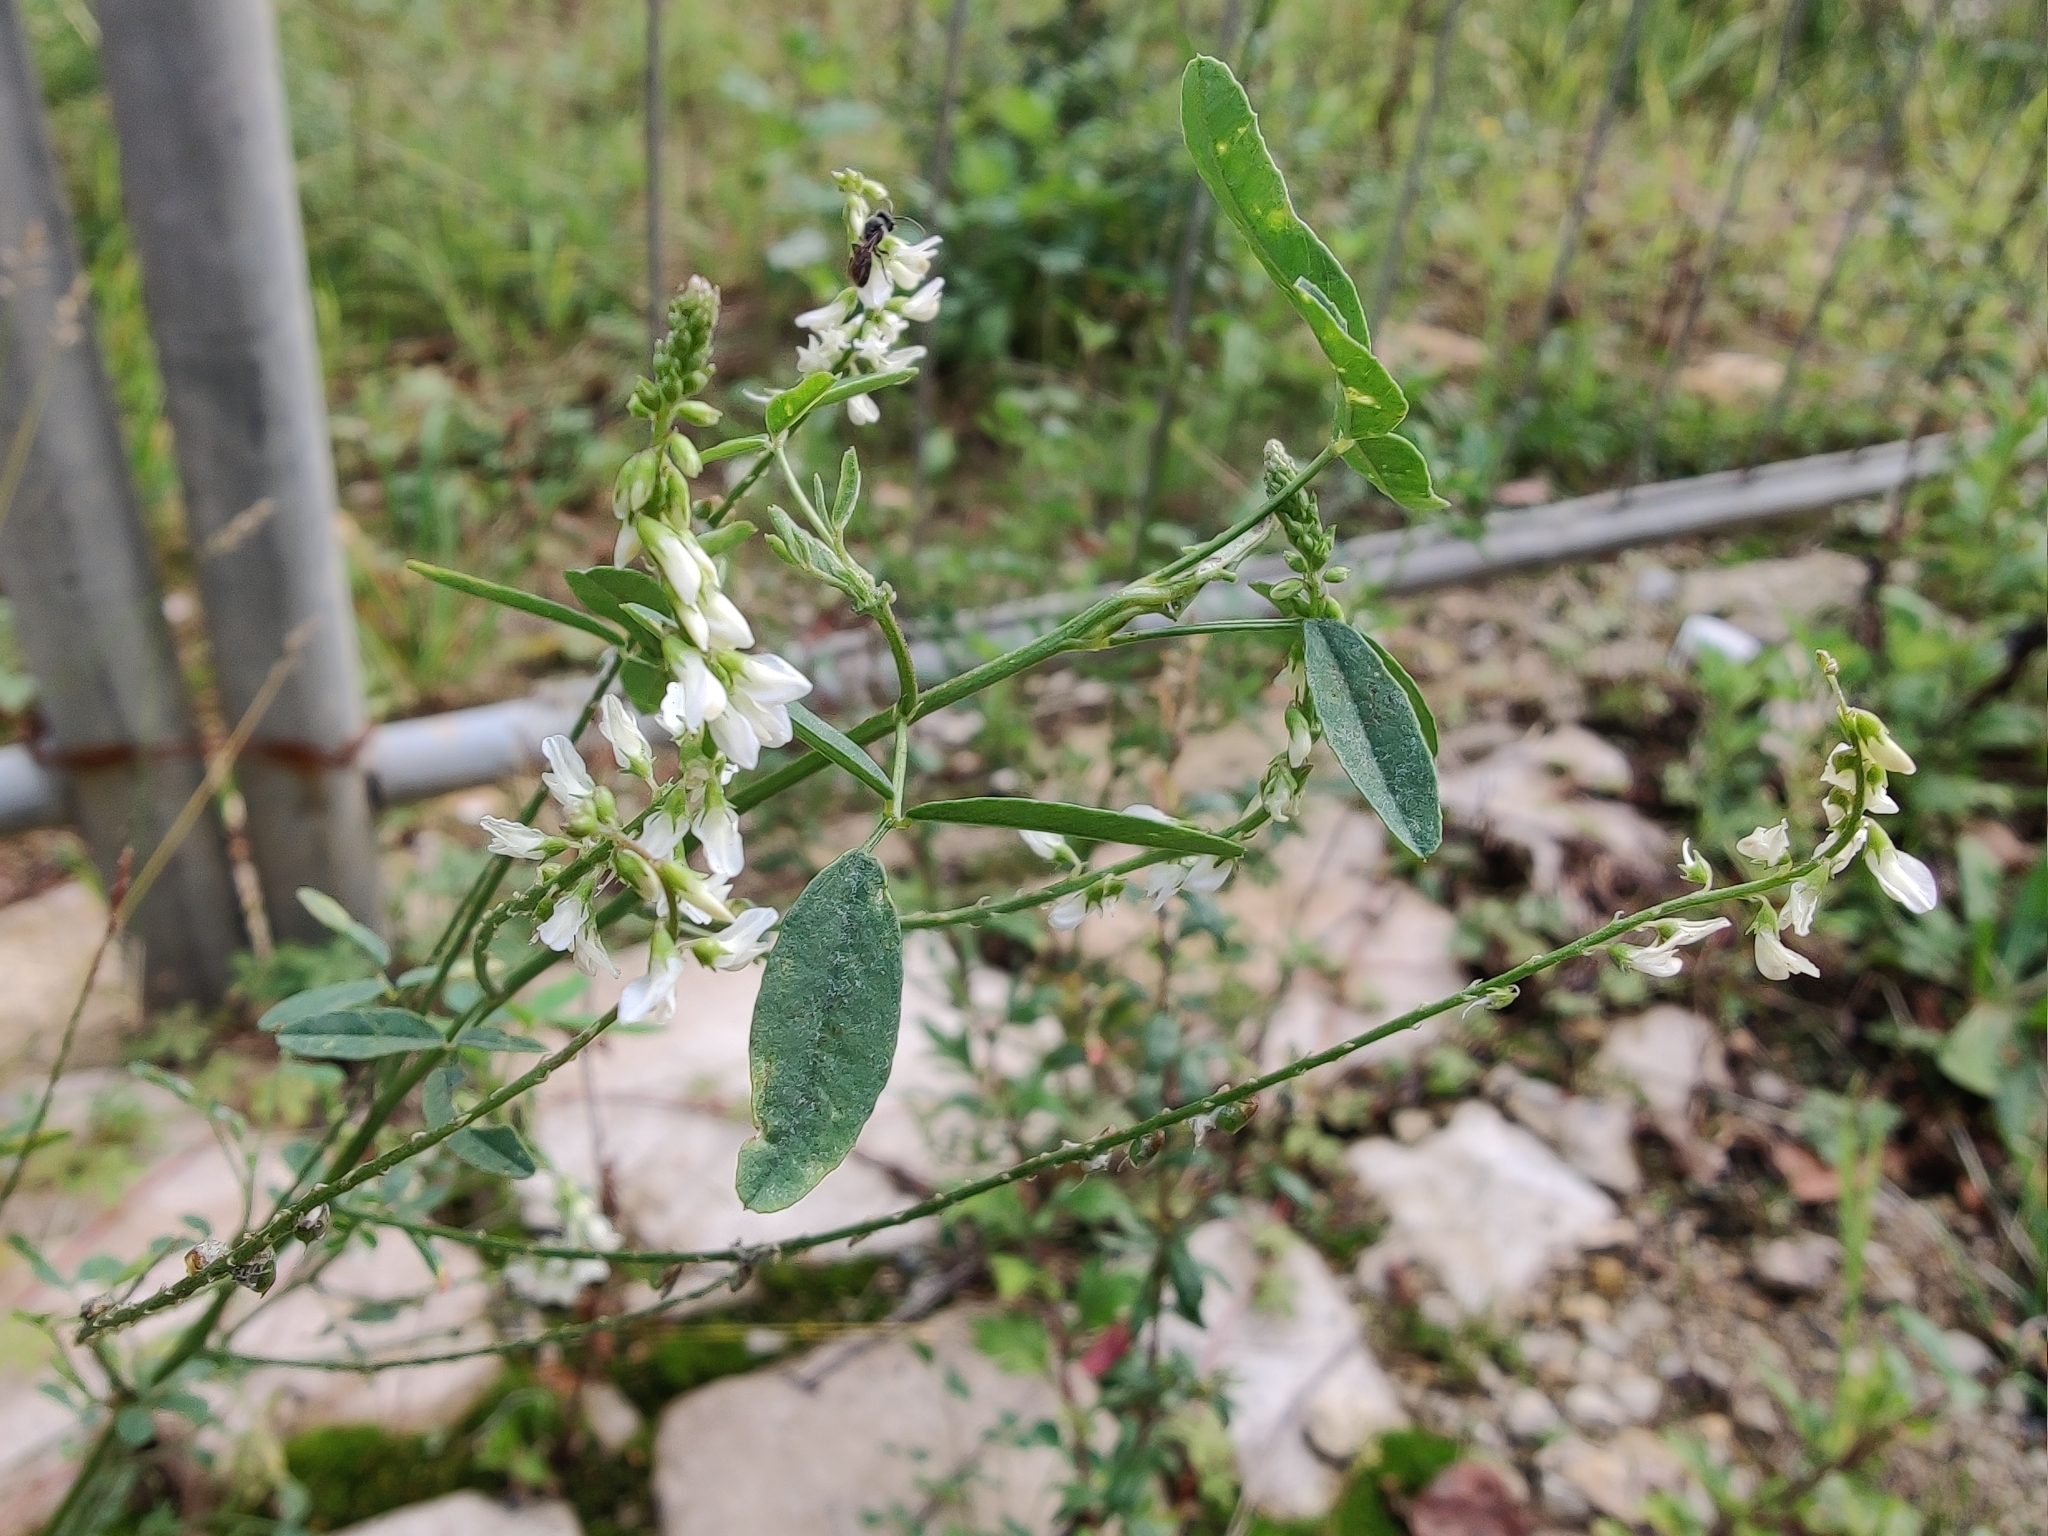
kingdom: Plantae
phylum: Tracheophyta
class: Magnoliopsida
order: Fabales
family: Fabaceae
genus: Melilotus
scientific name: Melilotus albus
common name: White melilot
